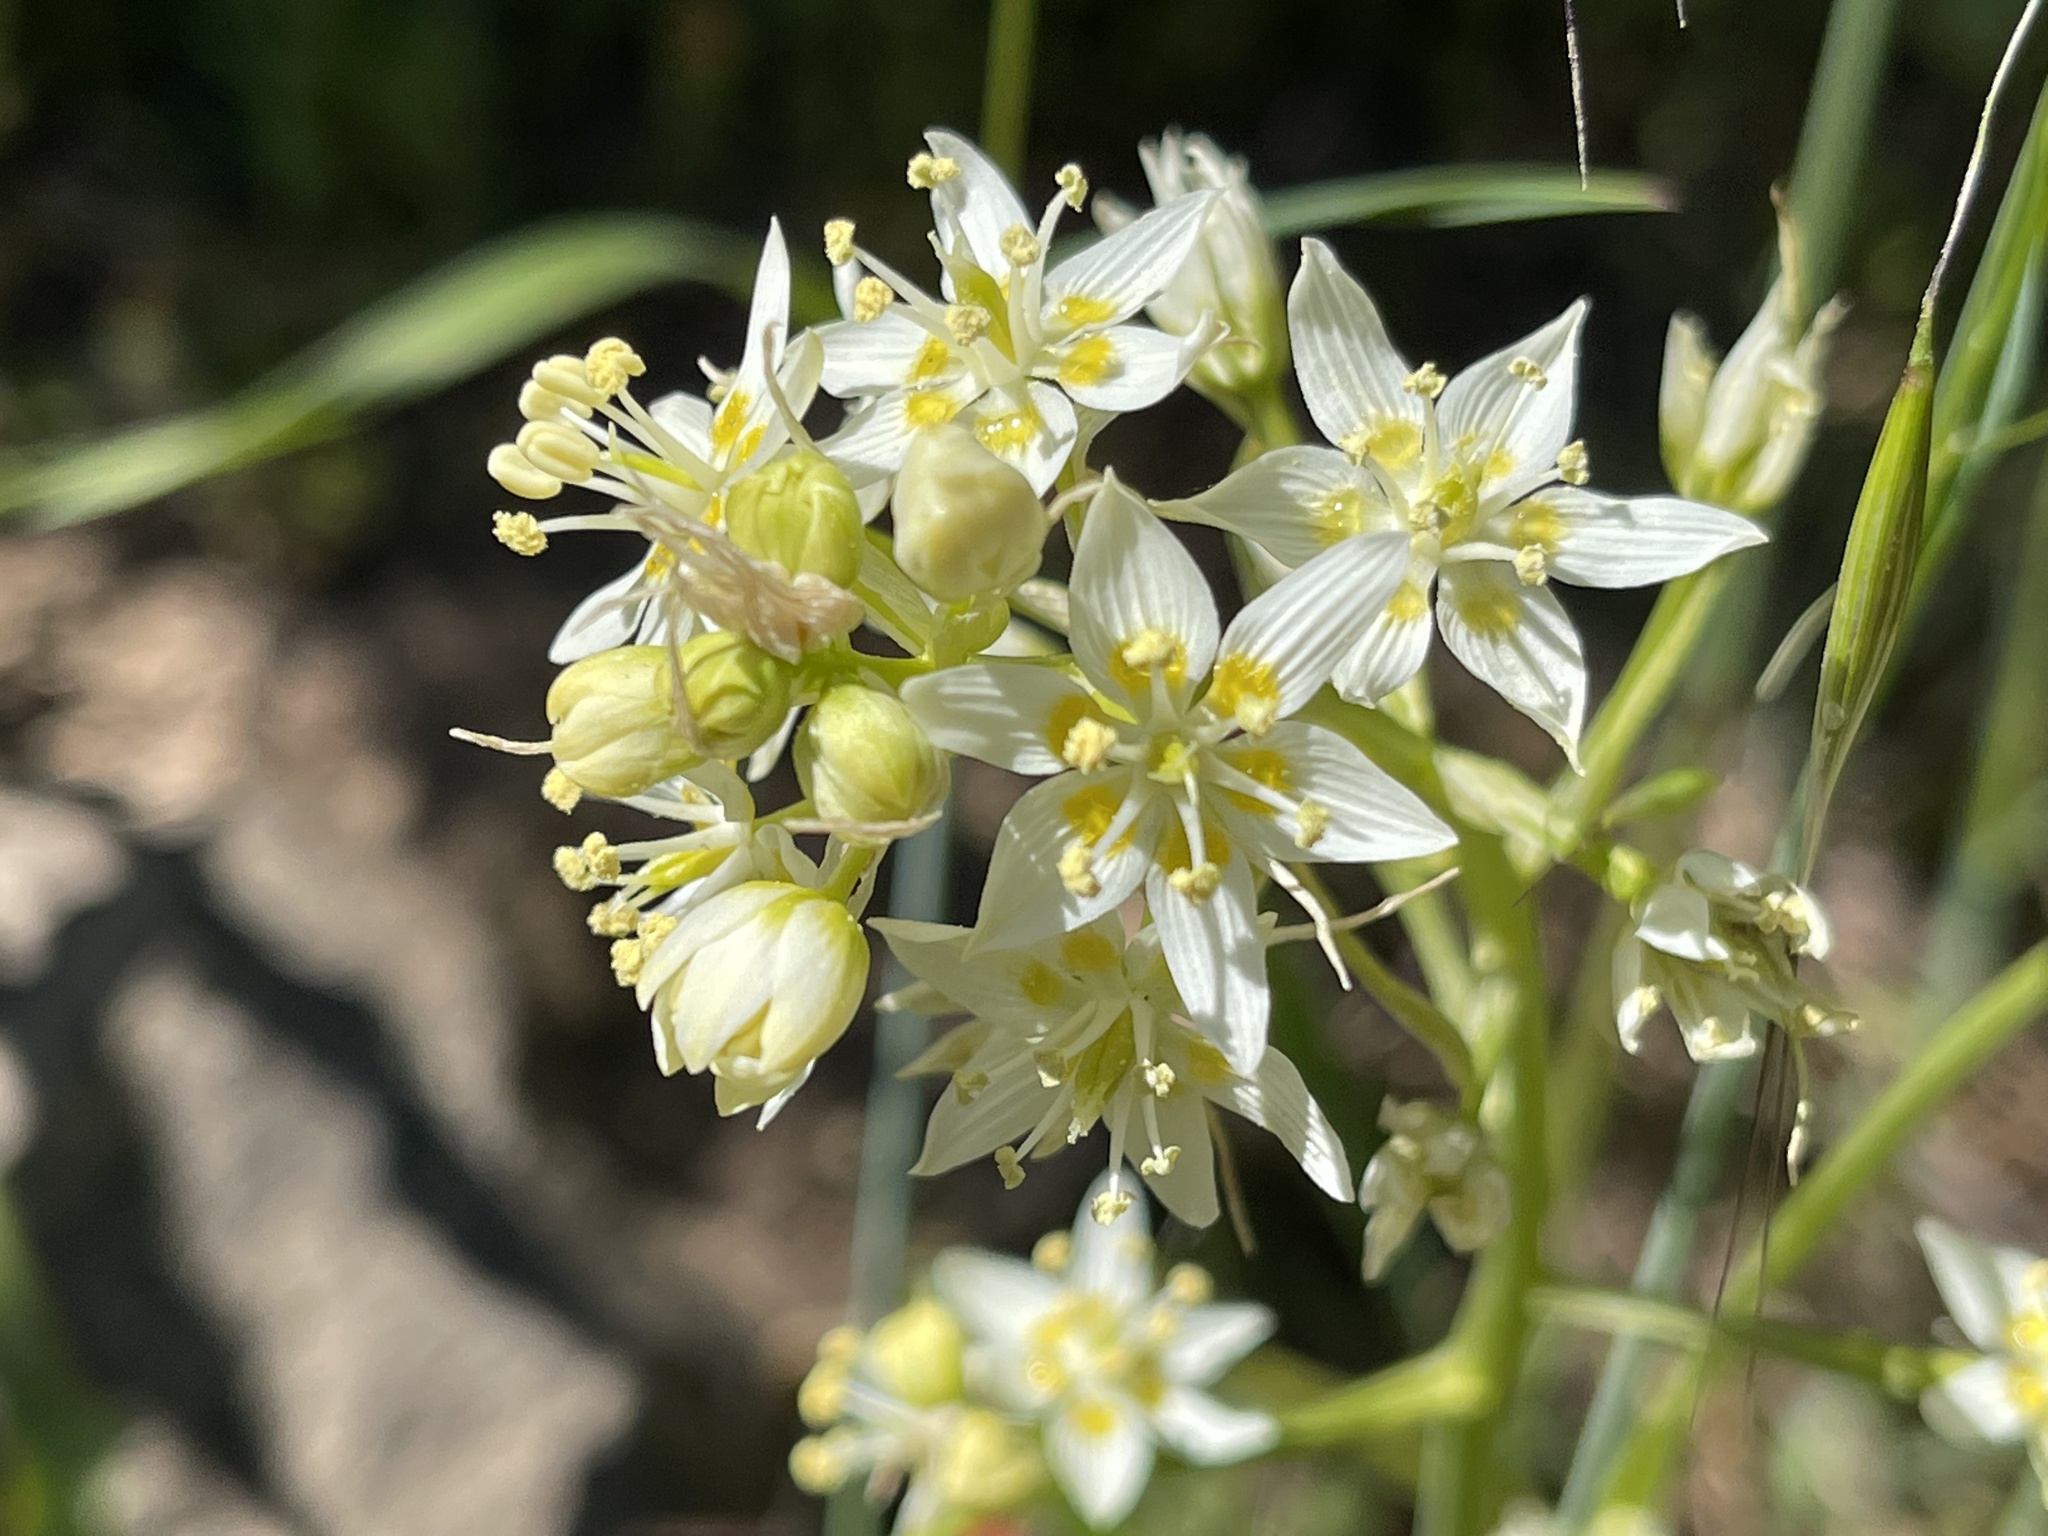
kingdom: Plantae
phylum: Tracheophyta
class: Liliopsida
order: Liliales
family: Melanthiaceae
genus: Toxicoscordion
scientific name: Toxicoscordion fremontii
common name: Fremont's death camas
